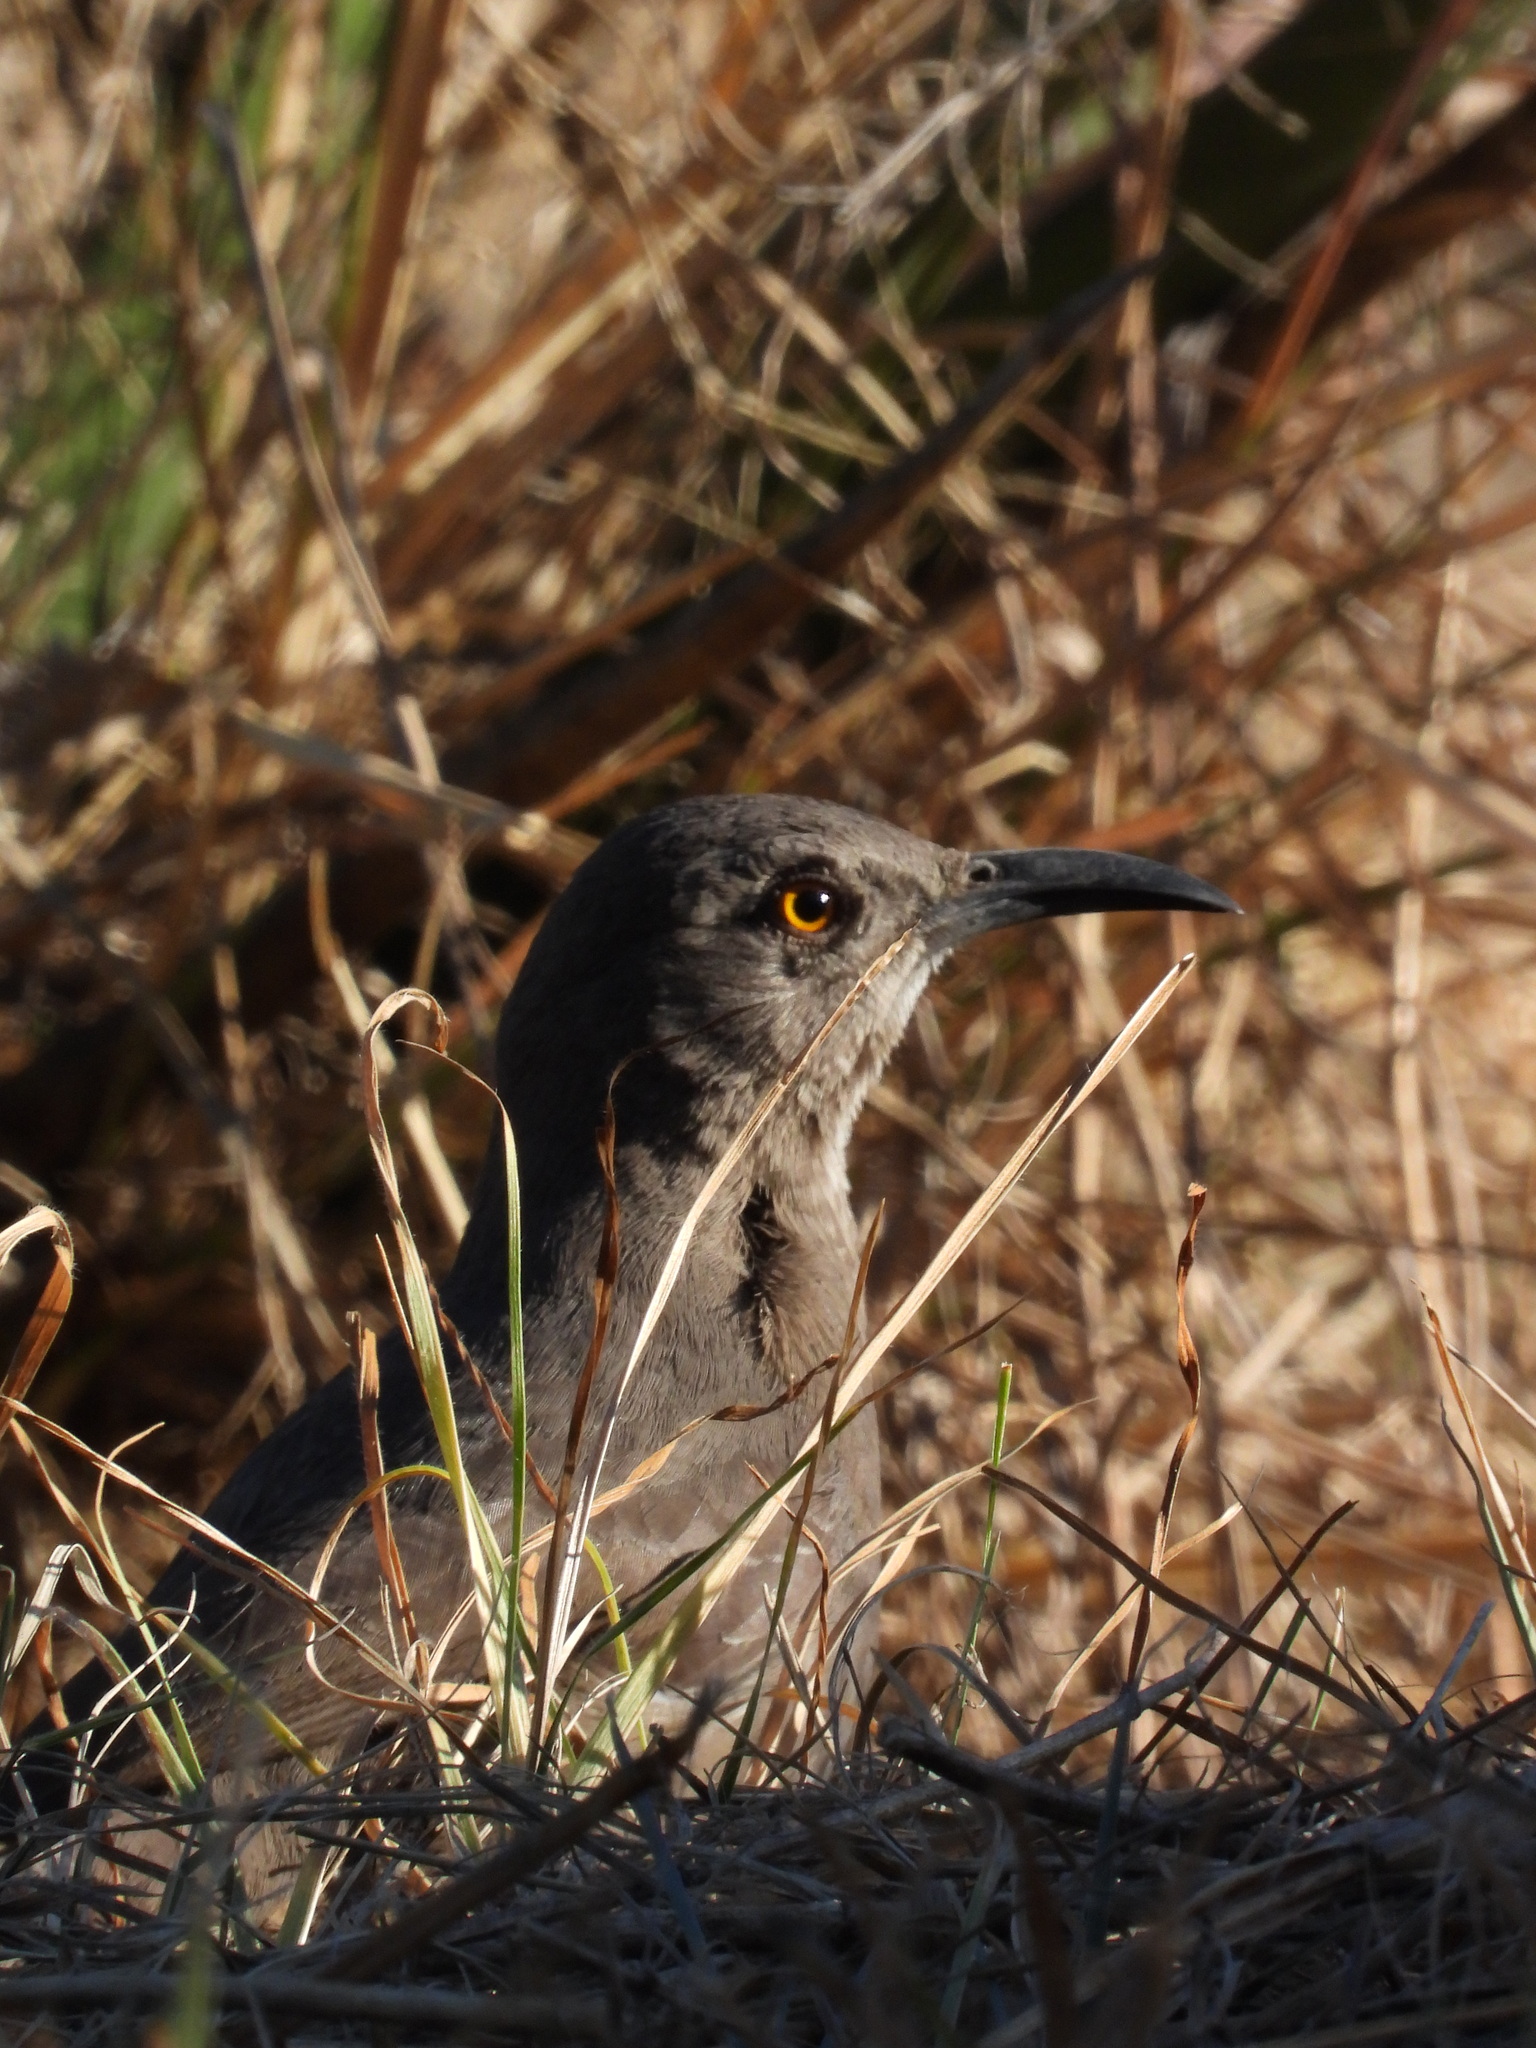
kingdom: Animalia
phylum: Chordata
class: Aves
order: Passeriformes
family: Mimidae
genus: Toxostoma
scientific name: Toxostoma curvirostre
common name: Curve-billed thrasher
